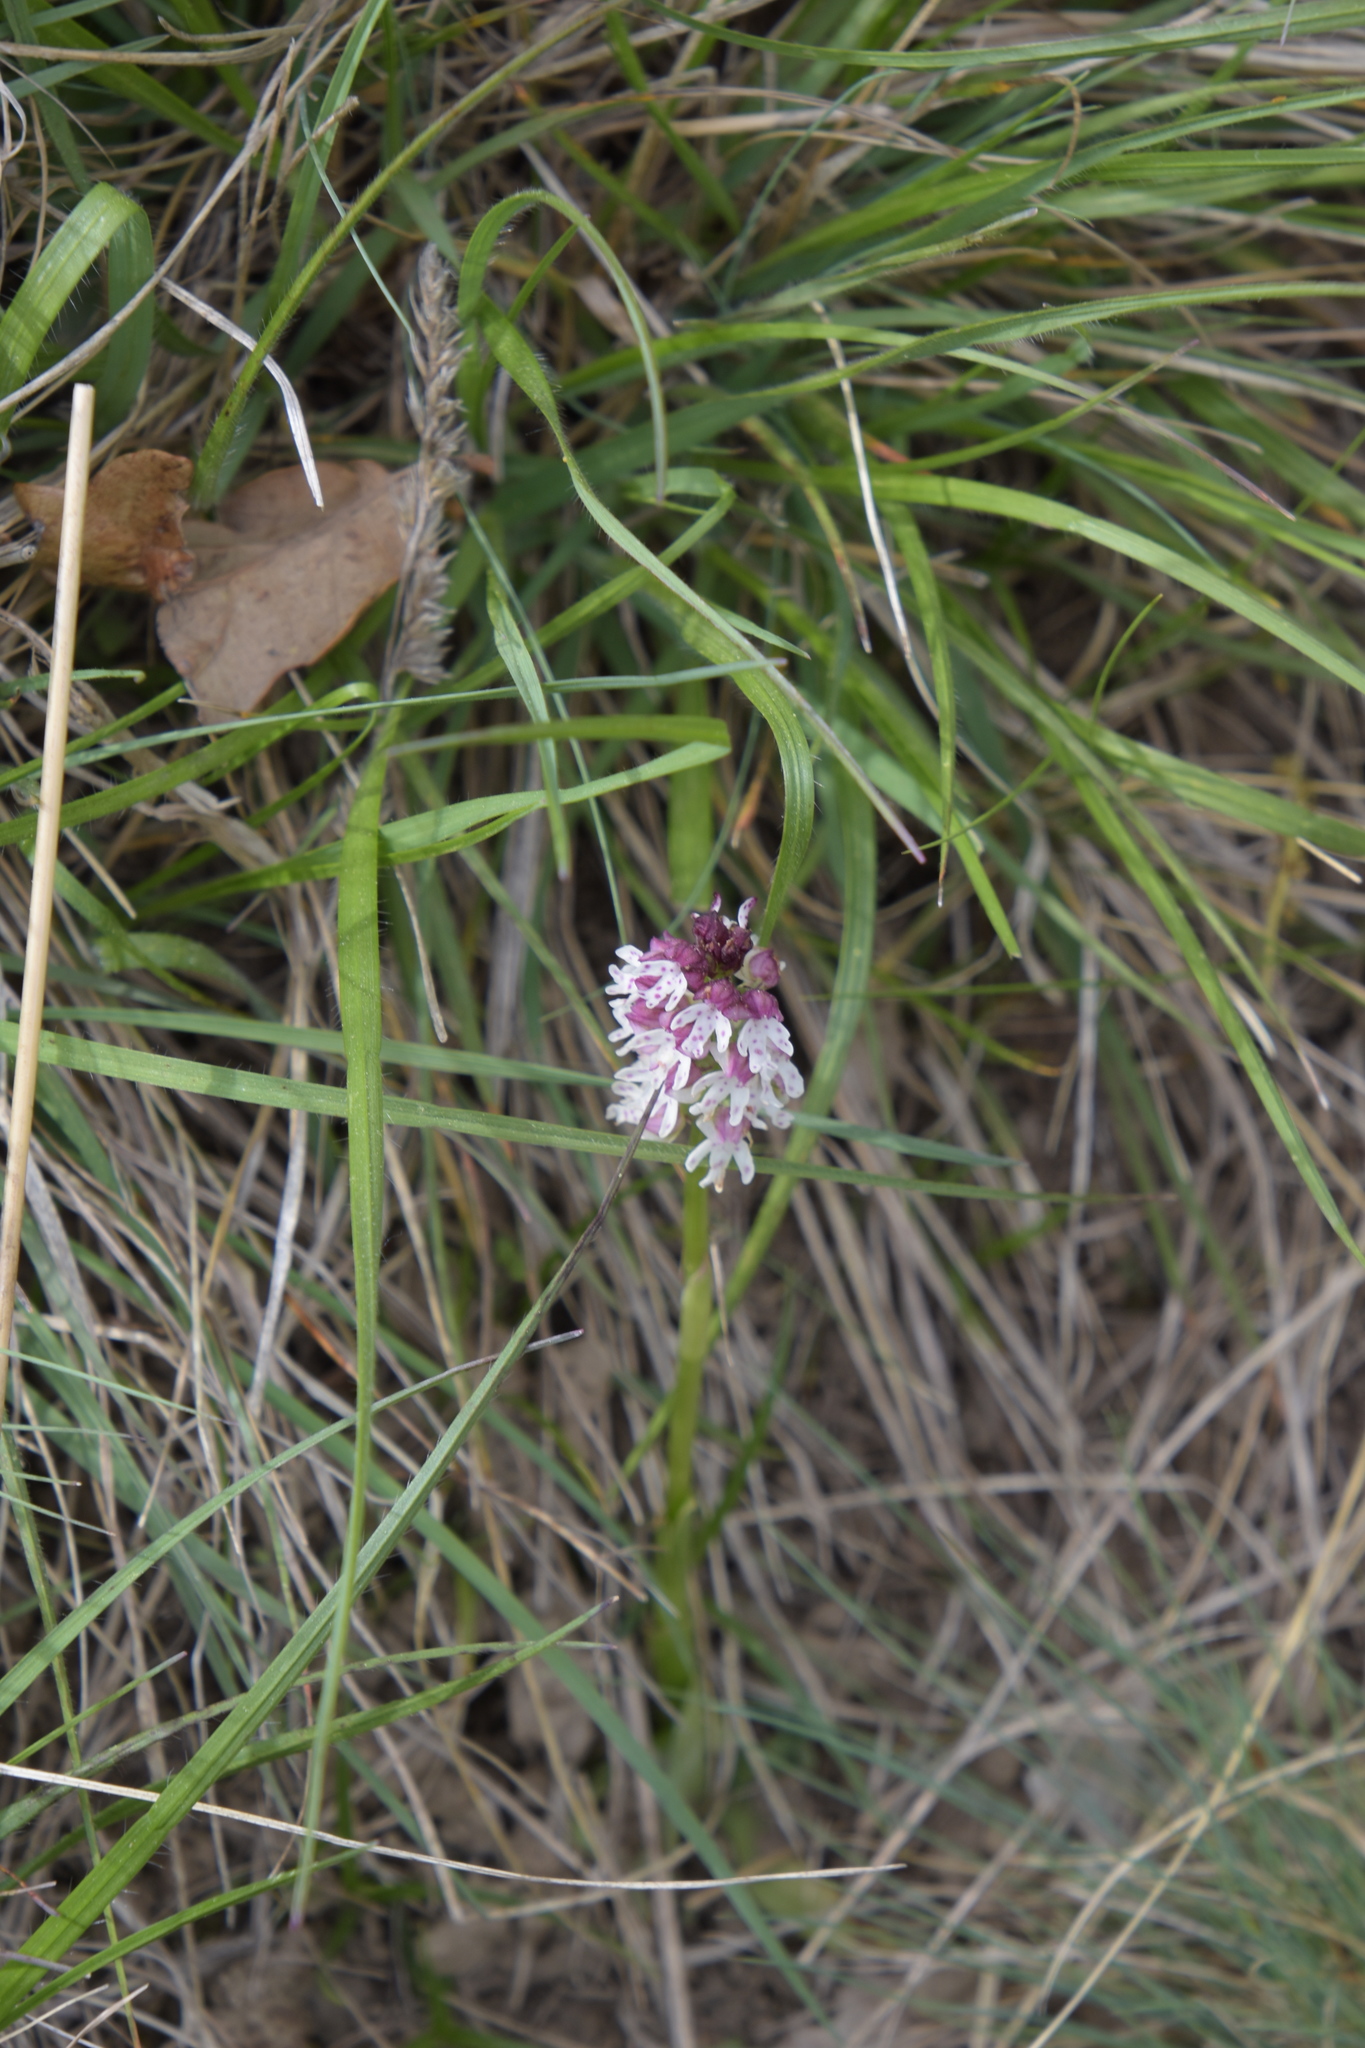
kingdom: Plantae
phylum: Tracheophyta
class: Liliopsida
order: Asparagales
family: Orchidaceae
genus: Neotinea
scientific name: Neotinea ustulata
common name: Burnt orchid
